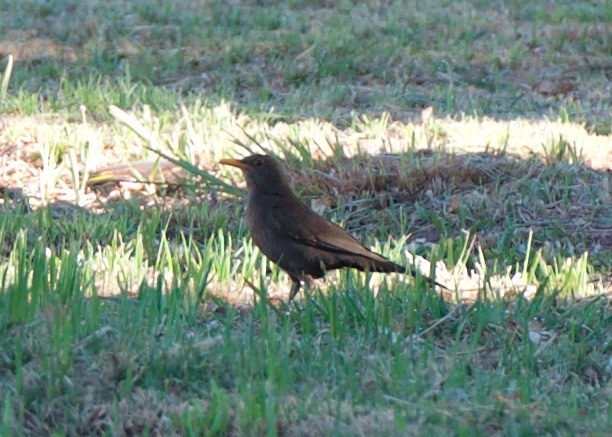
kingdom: Animalia
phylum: Chordata
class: Aves
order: Passeriformes
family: Turdidae
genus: Turdus
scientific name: Turdus chiguanco
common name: Chiguanco thrush
